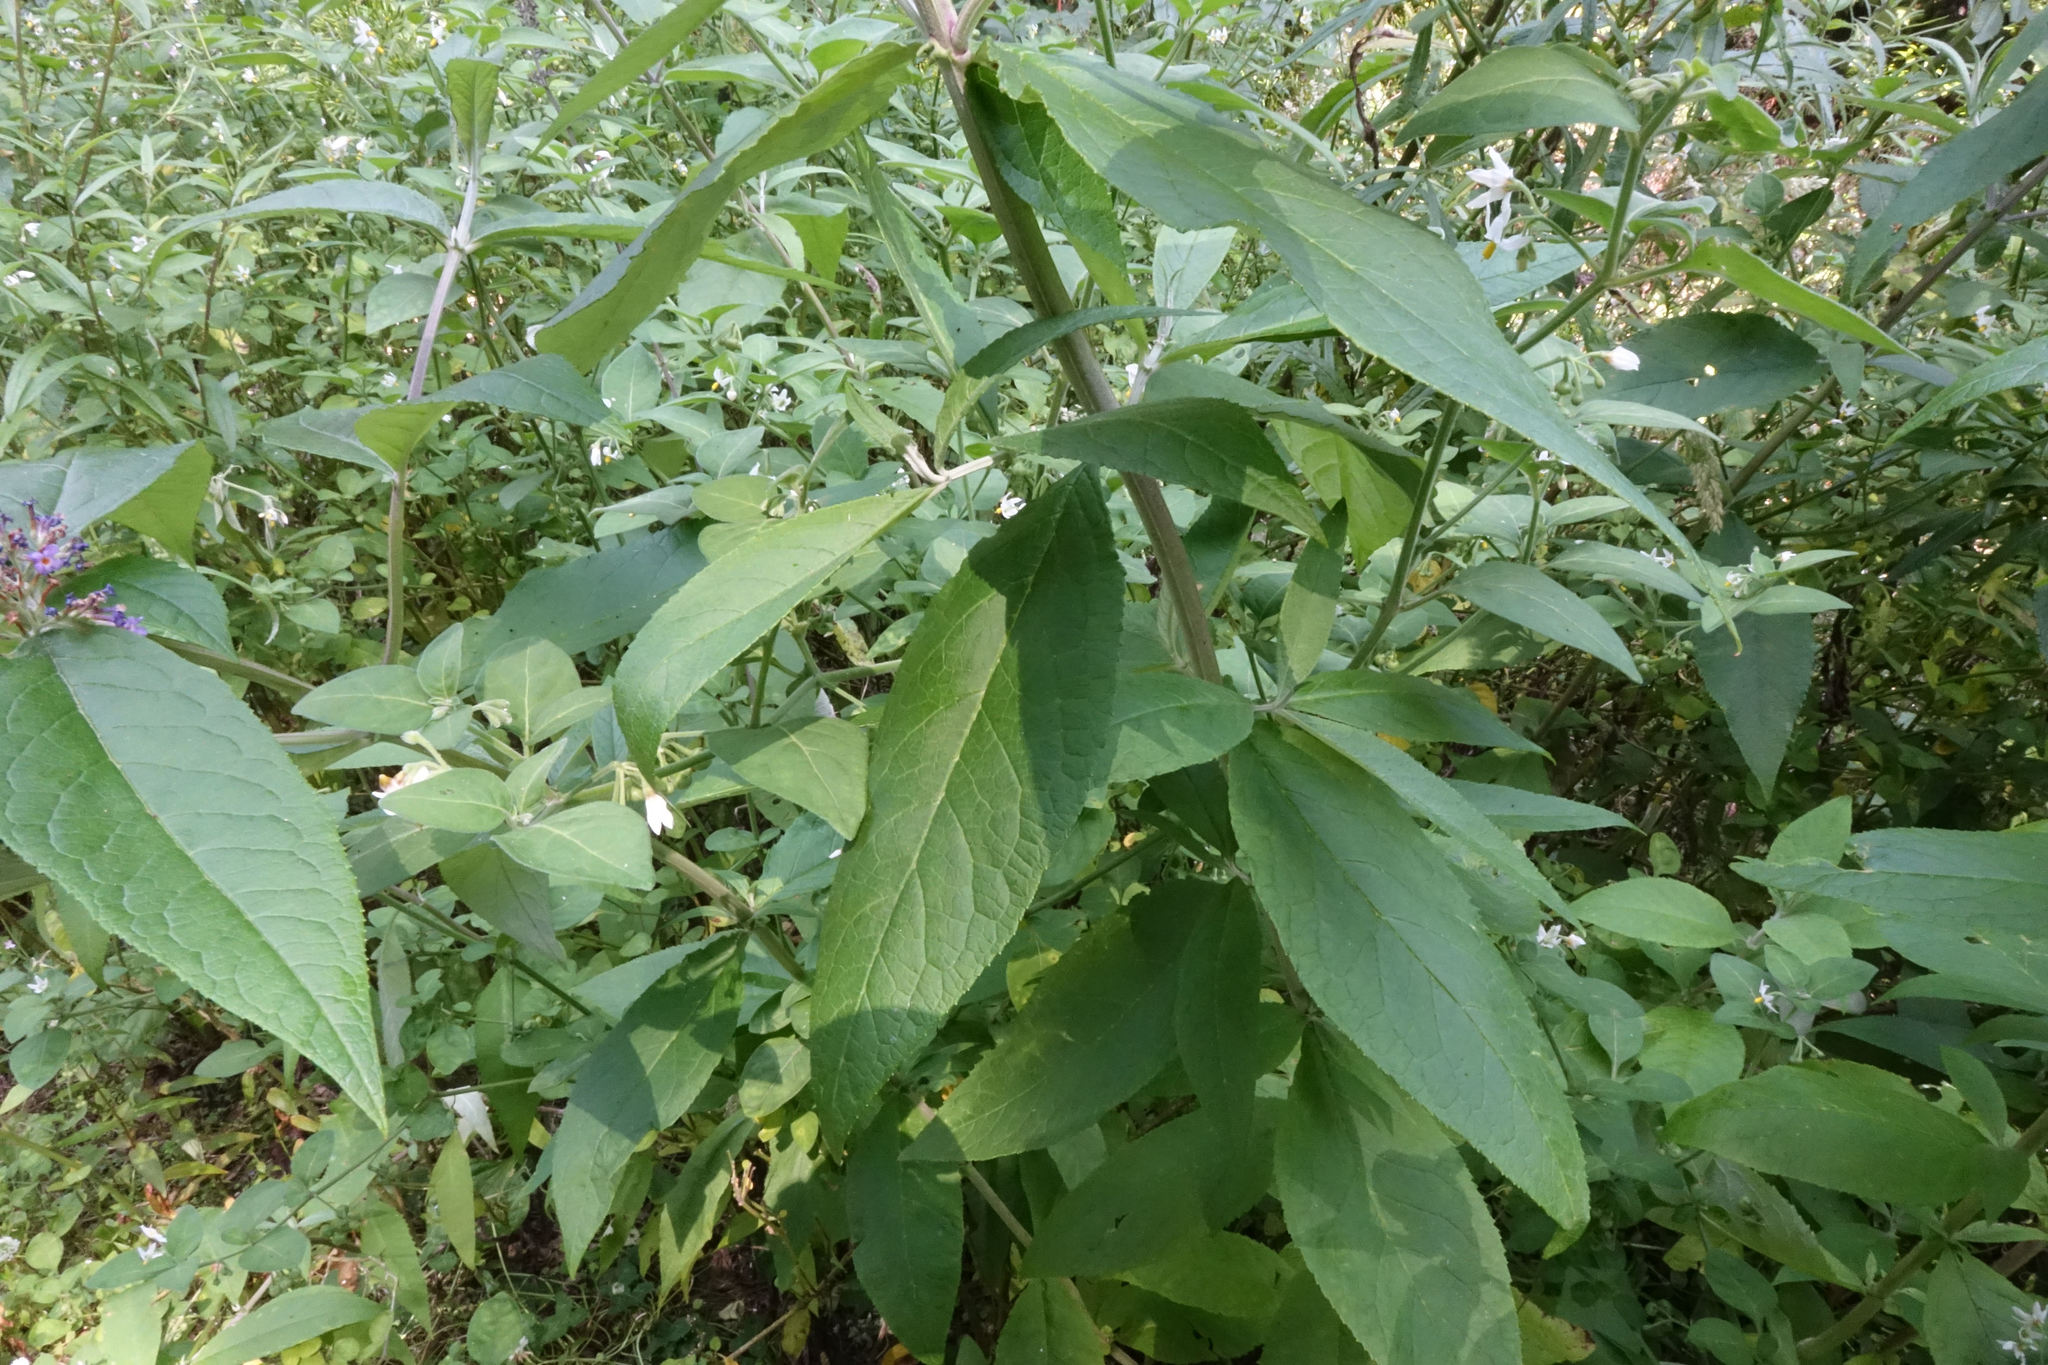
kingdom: Plantae
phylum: Tracheophyta
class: Magnoliopsida
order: Lamiales
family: Scrophulariaceae
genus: Buddleja
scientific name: Buddleja davidii
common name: Butterfly-bush
